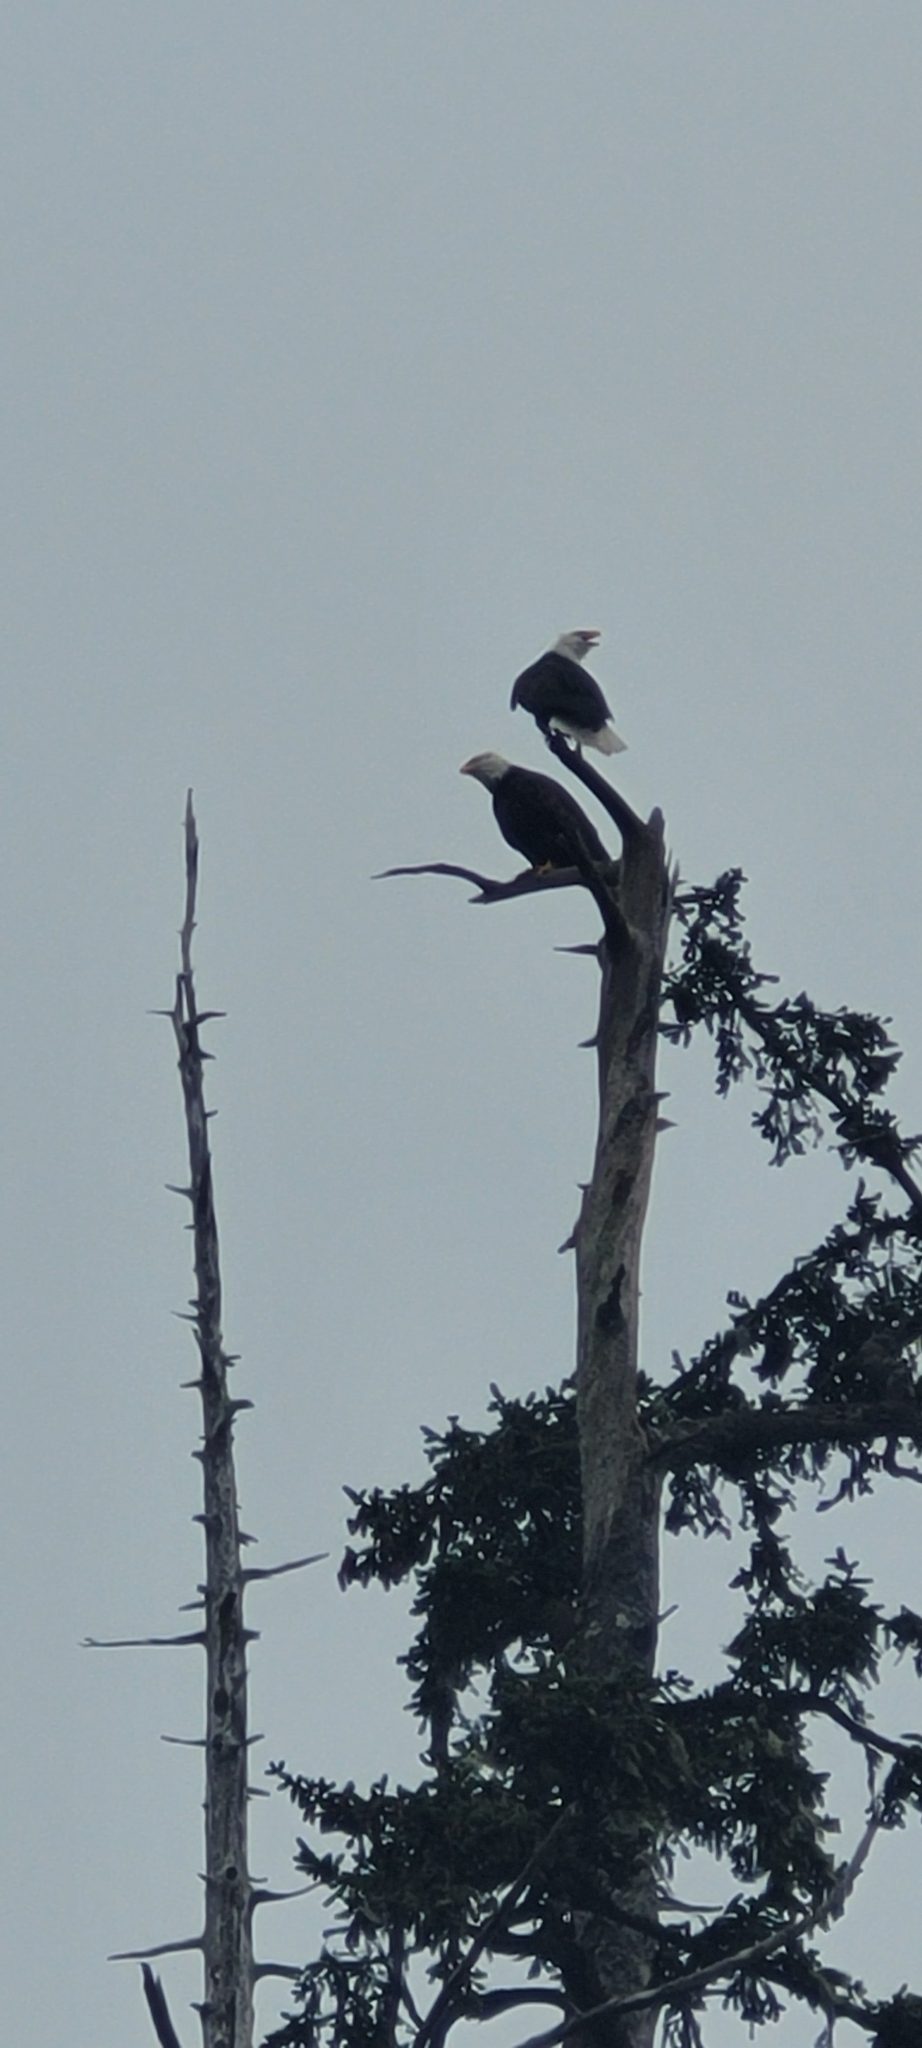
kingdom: Animalia
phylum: Chordata
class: Aves
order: Accipitriformes
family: Accipitridae
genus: Haliaeetus
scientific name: Haliaeetus leucocephalus
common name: Bald eagle
